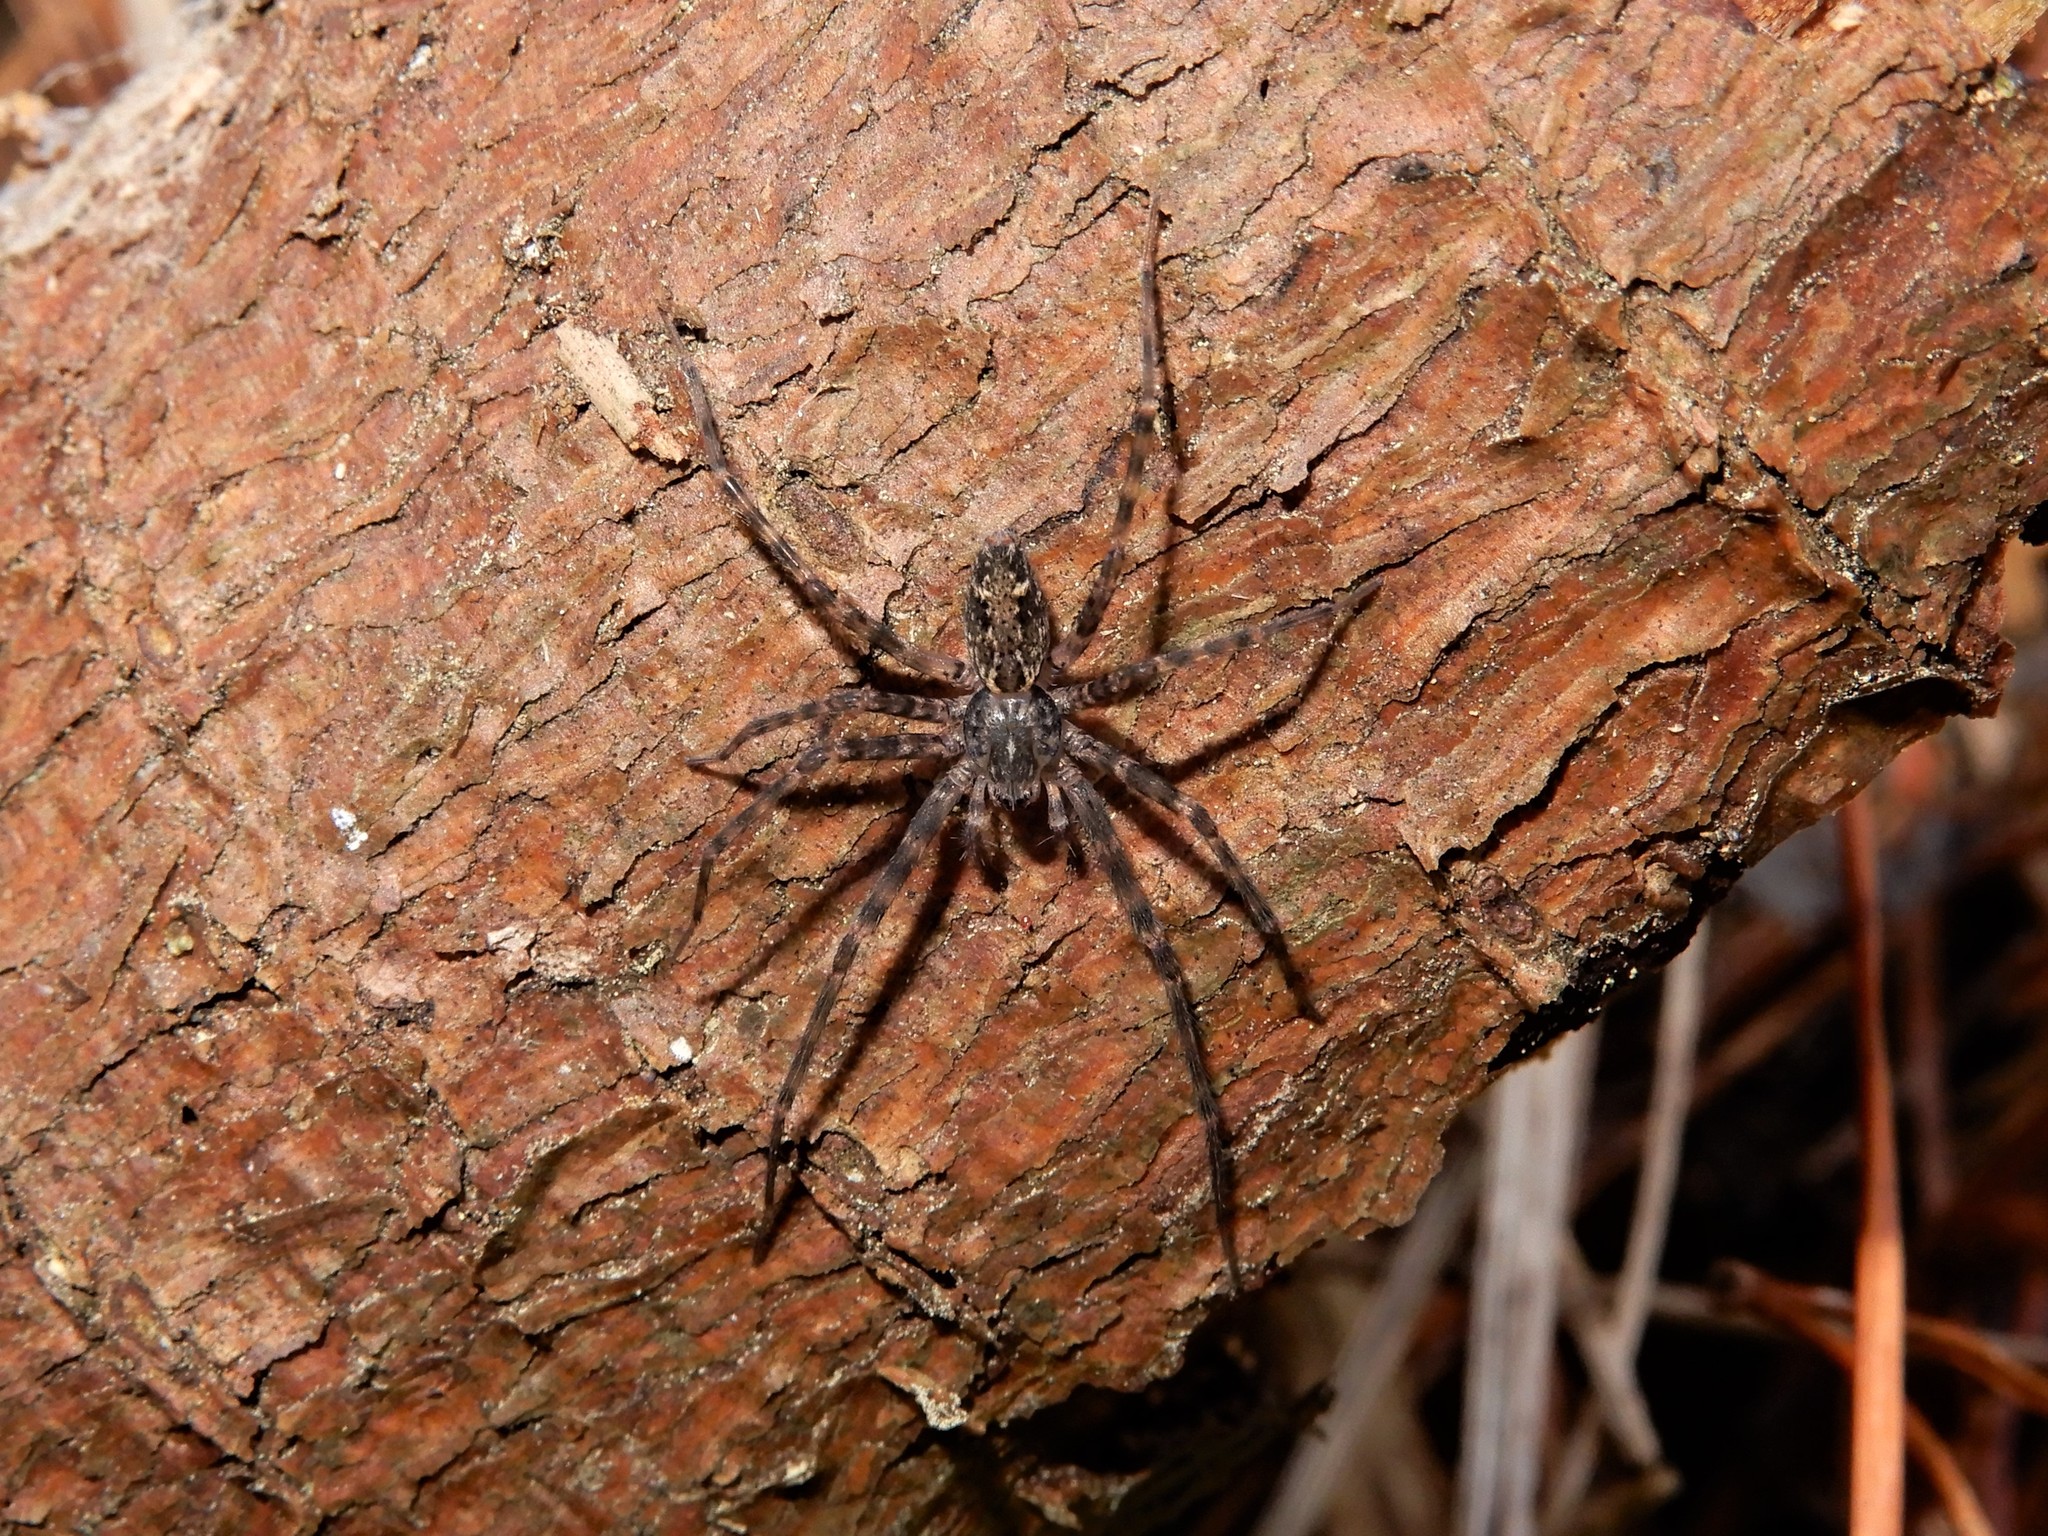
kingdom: Animalia
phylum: Arthropoda
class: Arachnida
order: Araneae
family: Stiphidiidae
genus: Stiphidion
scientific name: Stiphidion facetum
